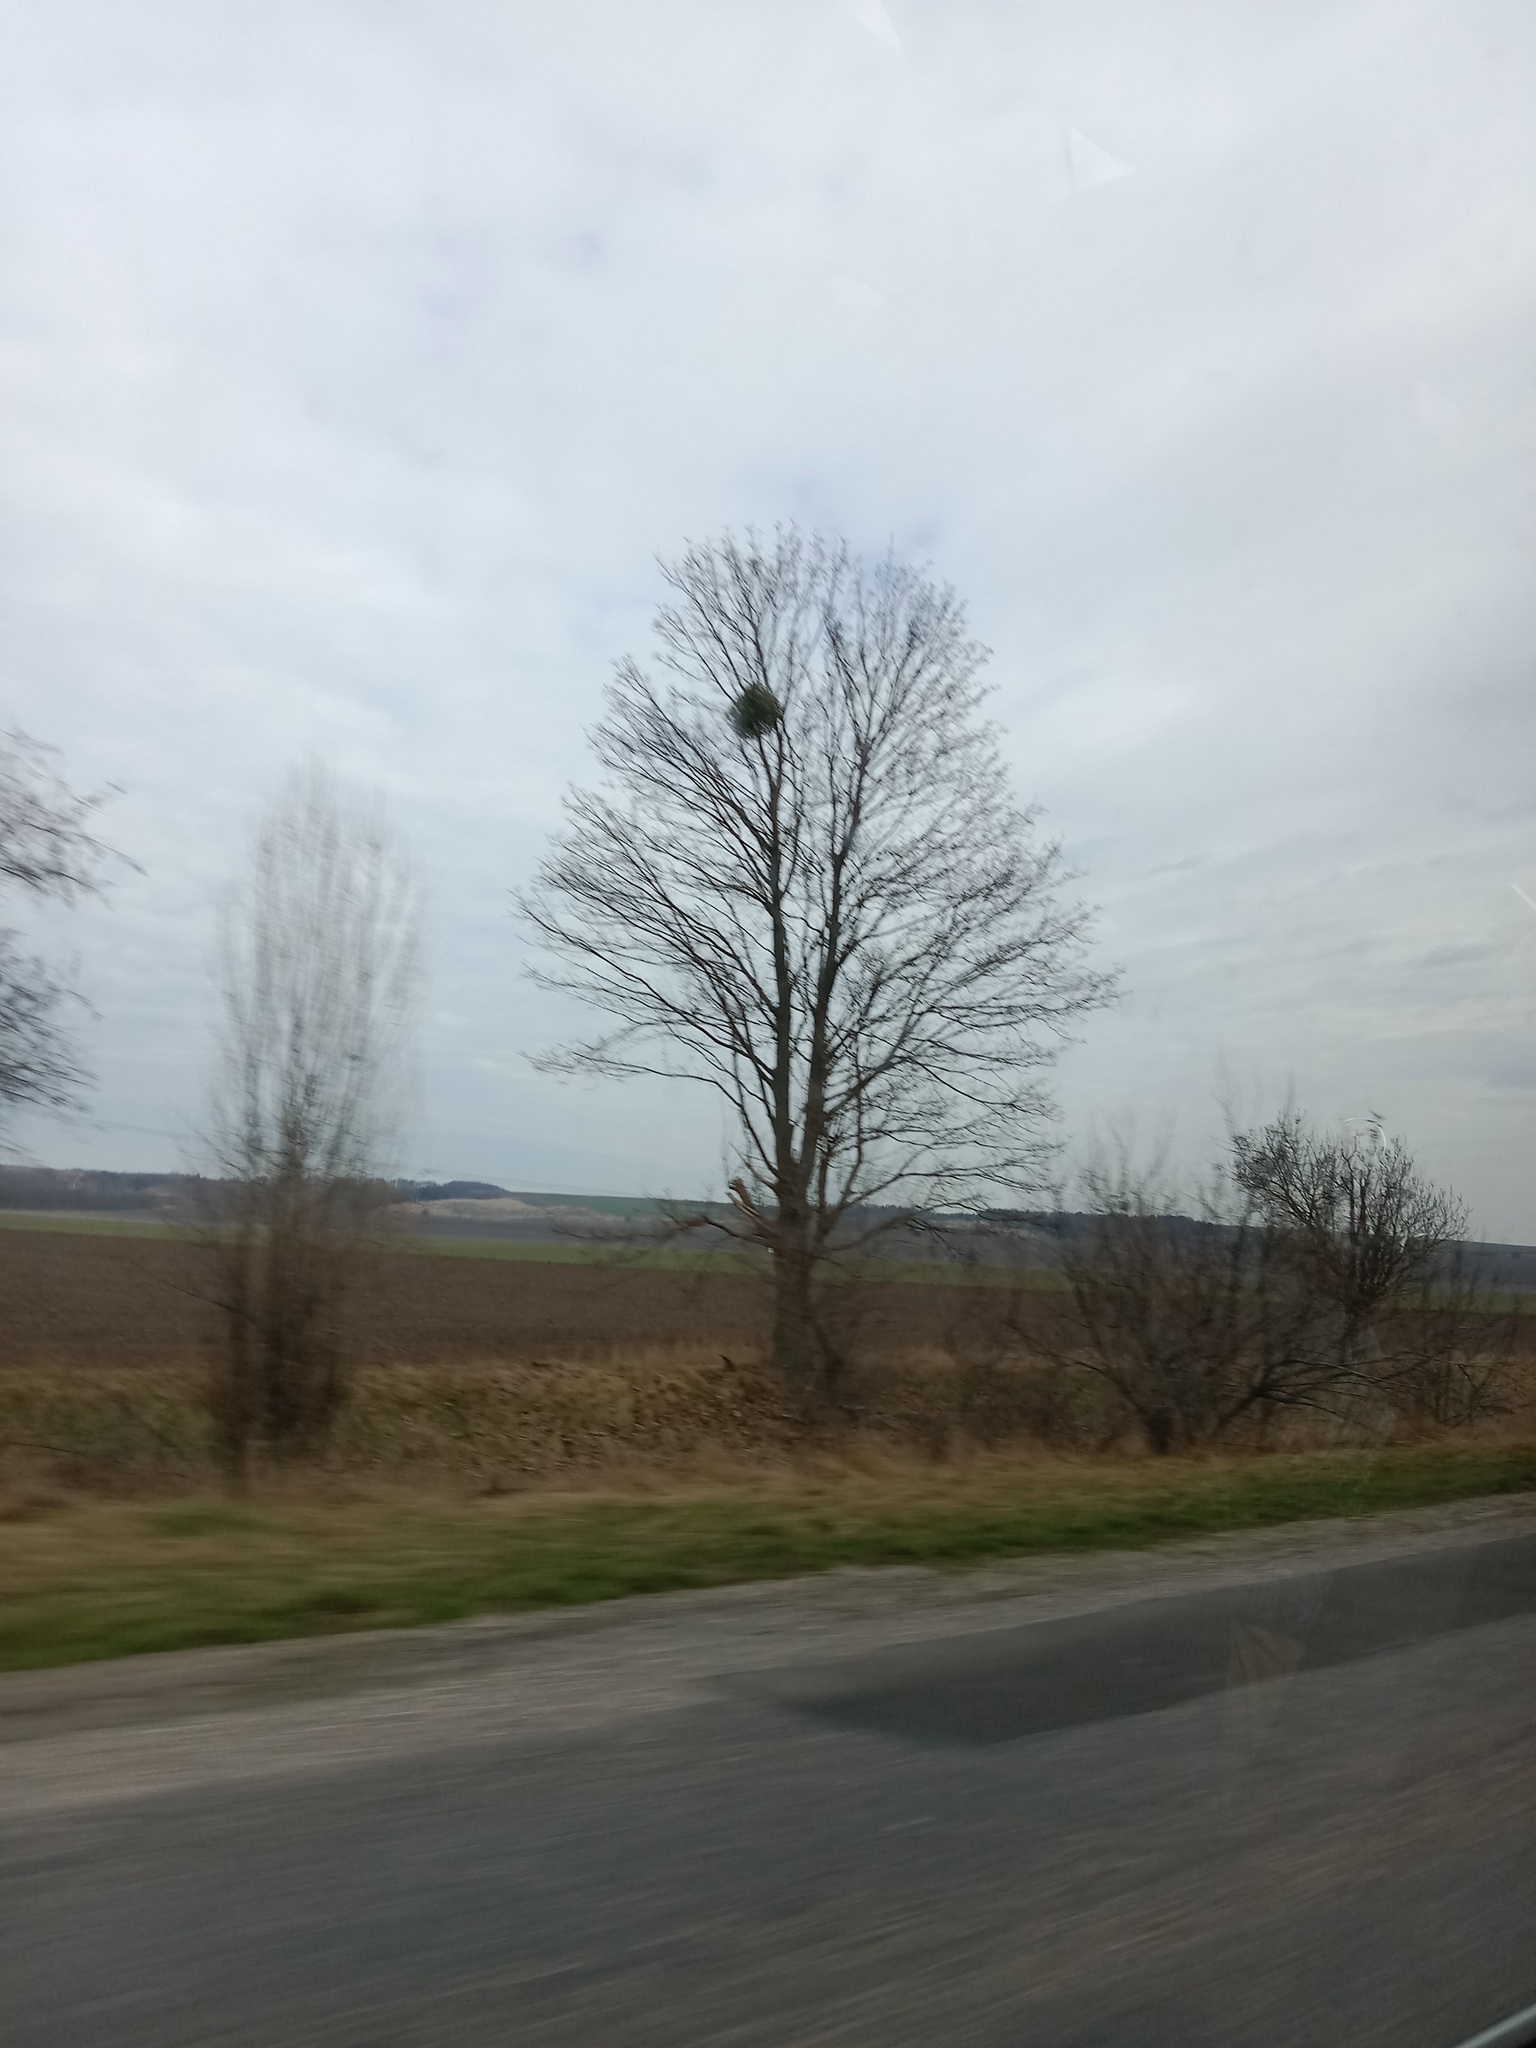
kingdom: Plantae
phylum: Tracheophyta
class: Magnoliopsida
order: Santalales
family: Viscaceae
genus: Viscum
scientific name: Viscum album
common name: Mistletoe
